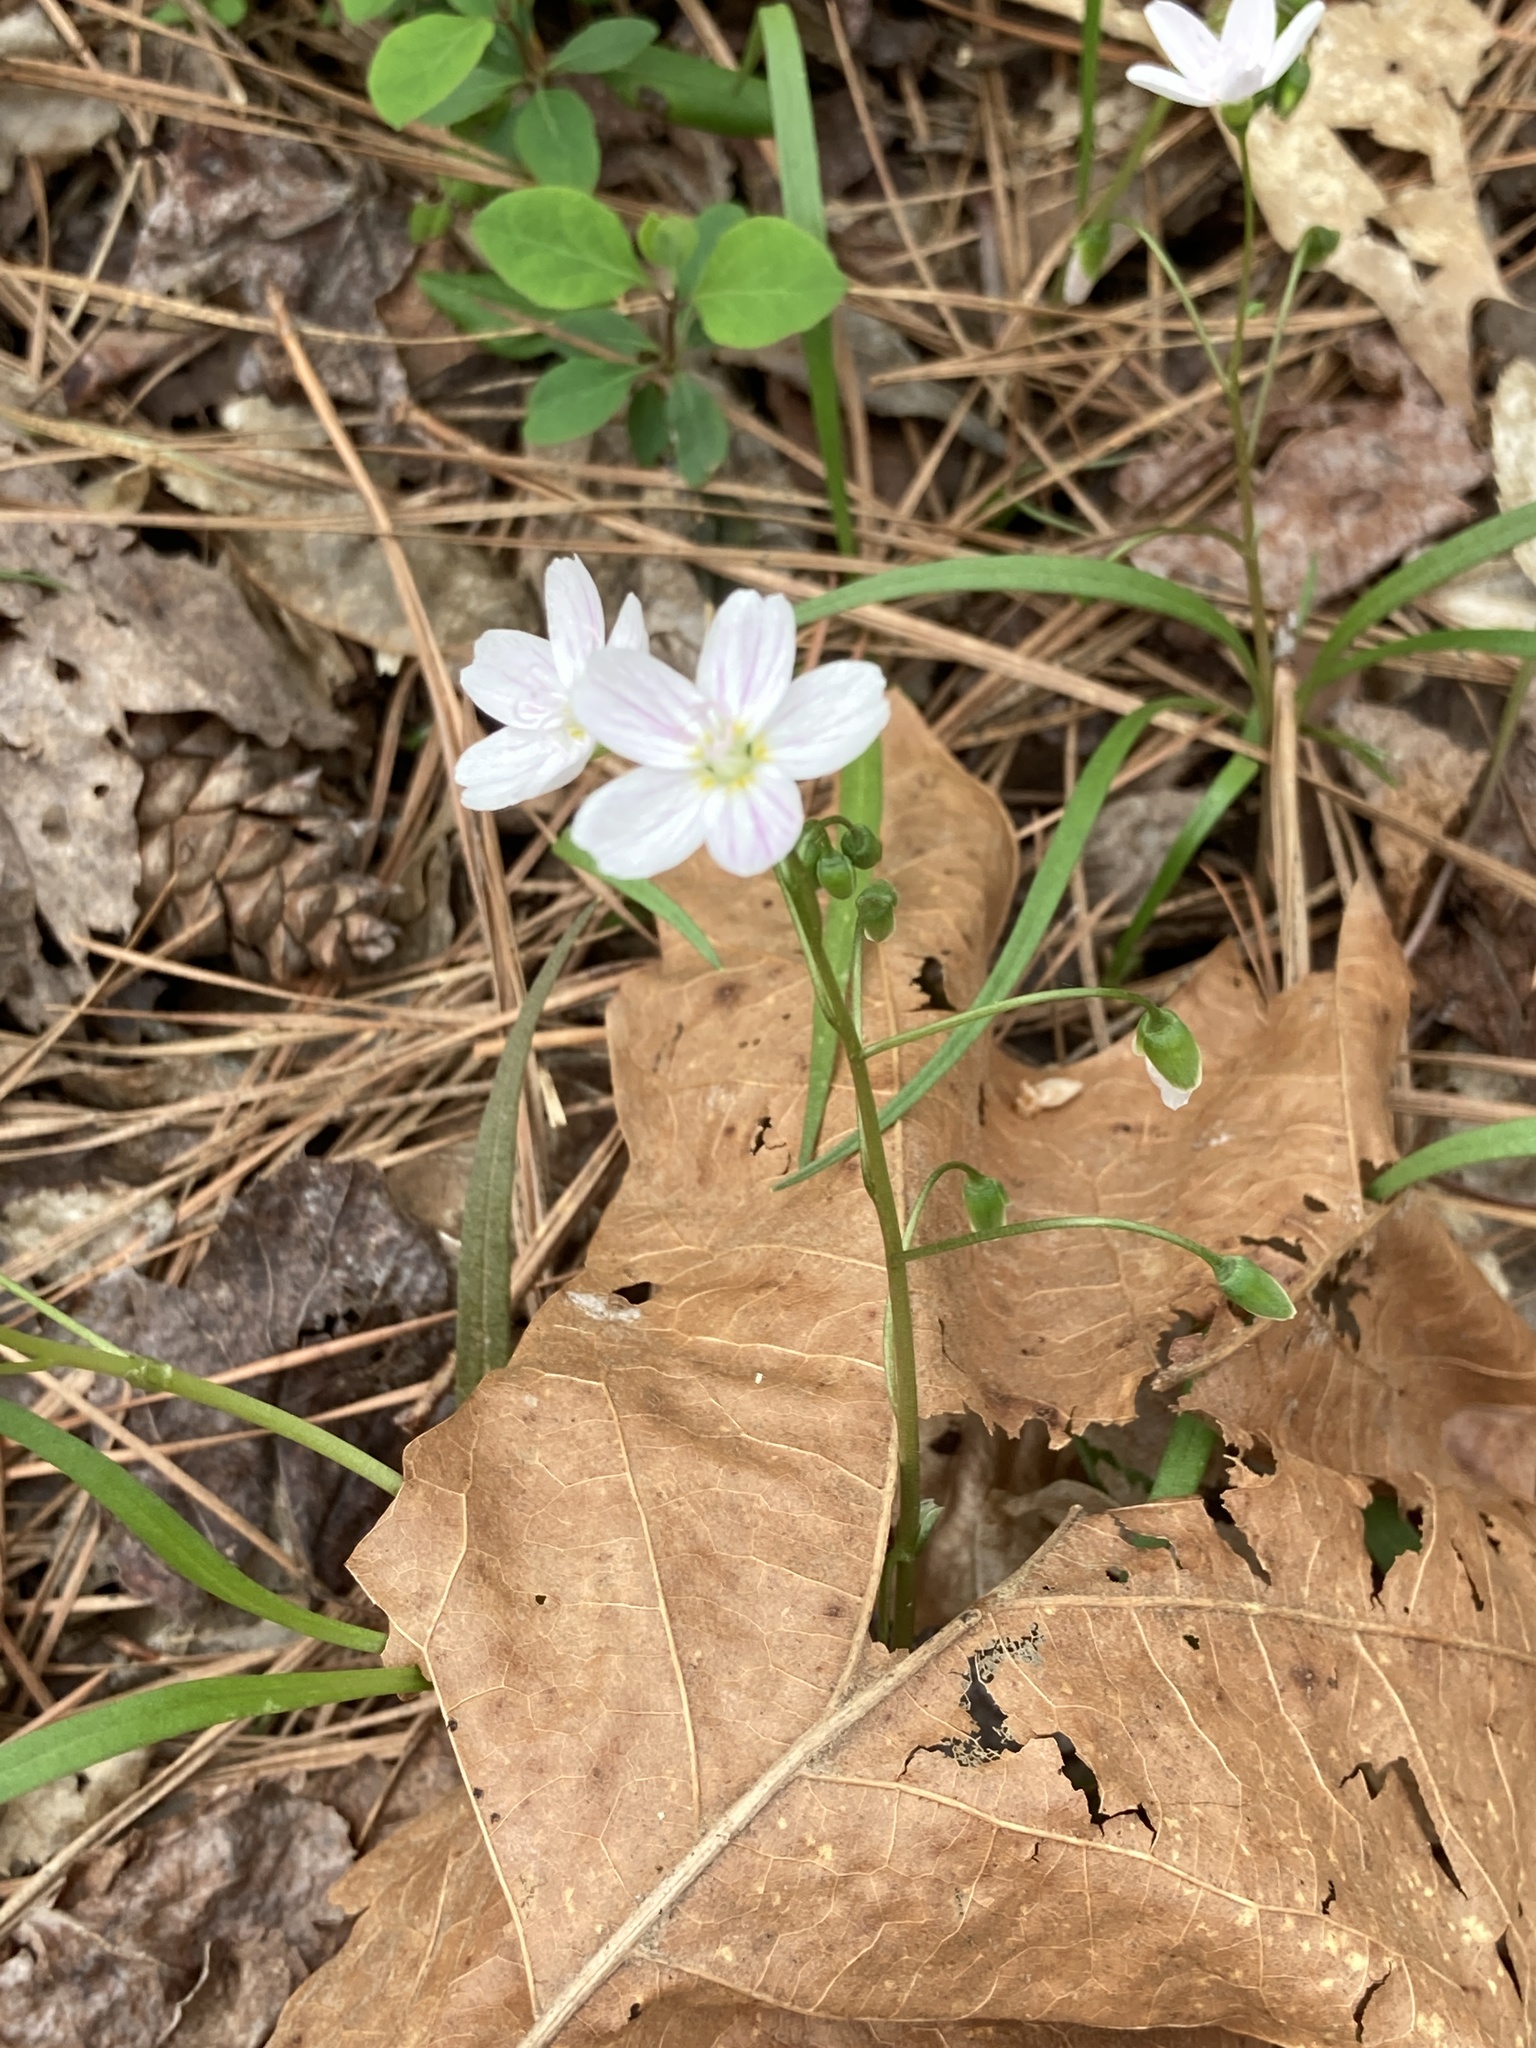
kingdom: Plantae
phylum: Tracheophyta
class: Magnoliopsida
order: Caryophyllales
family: Montiaceae
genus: Claytonia
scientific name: Claytonia virginica
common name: Virginia springbeauty
